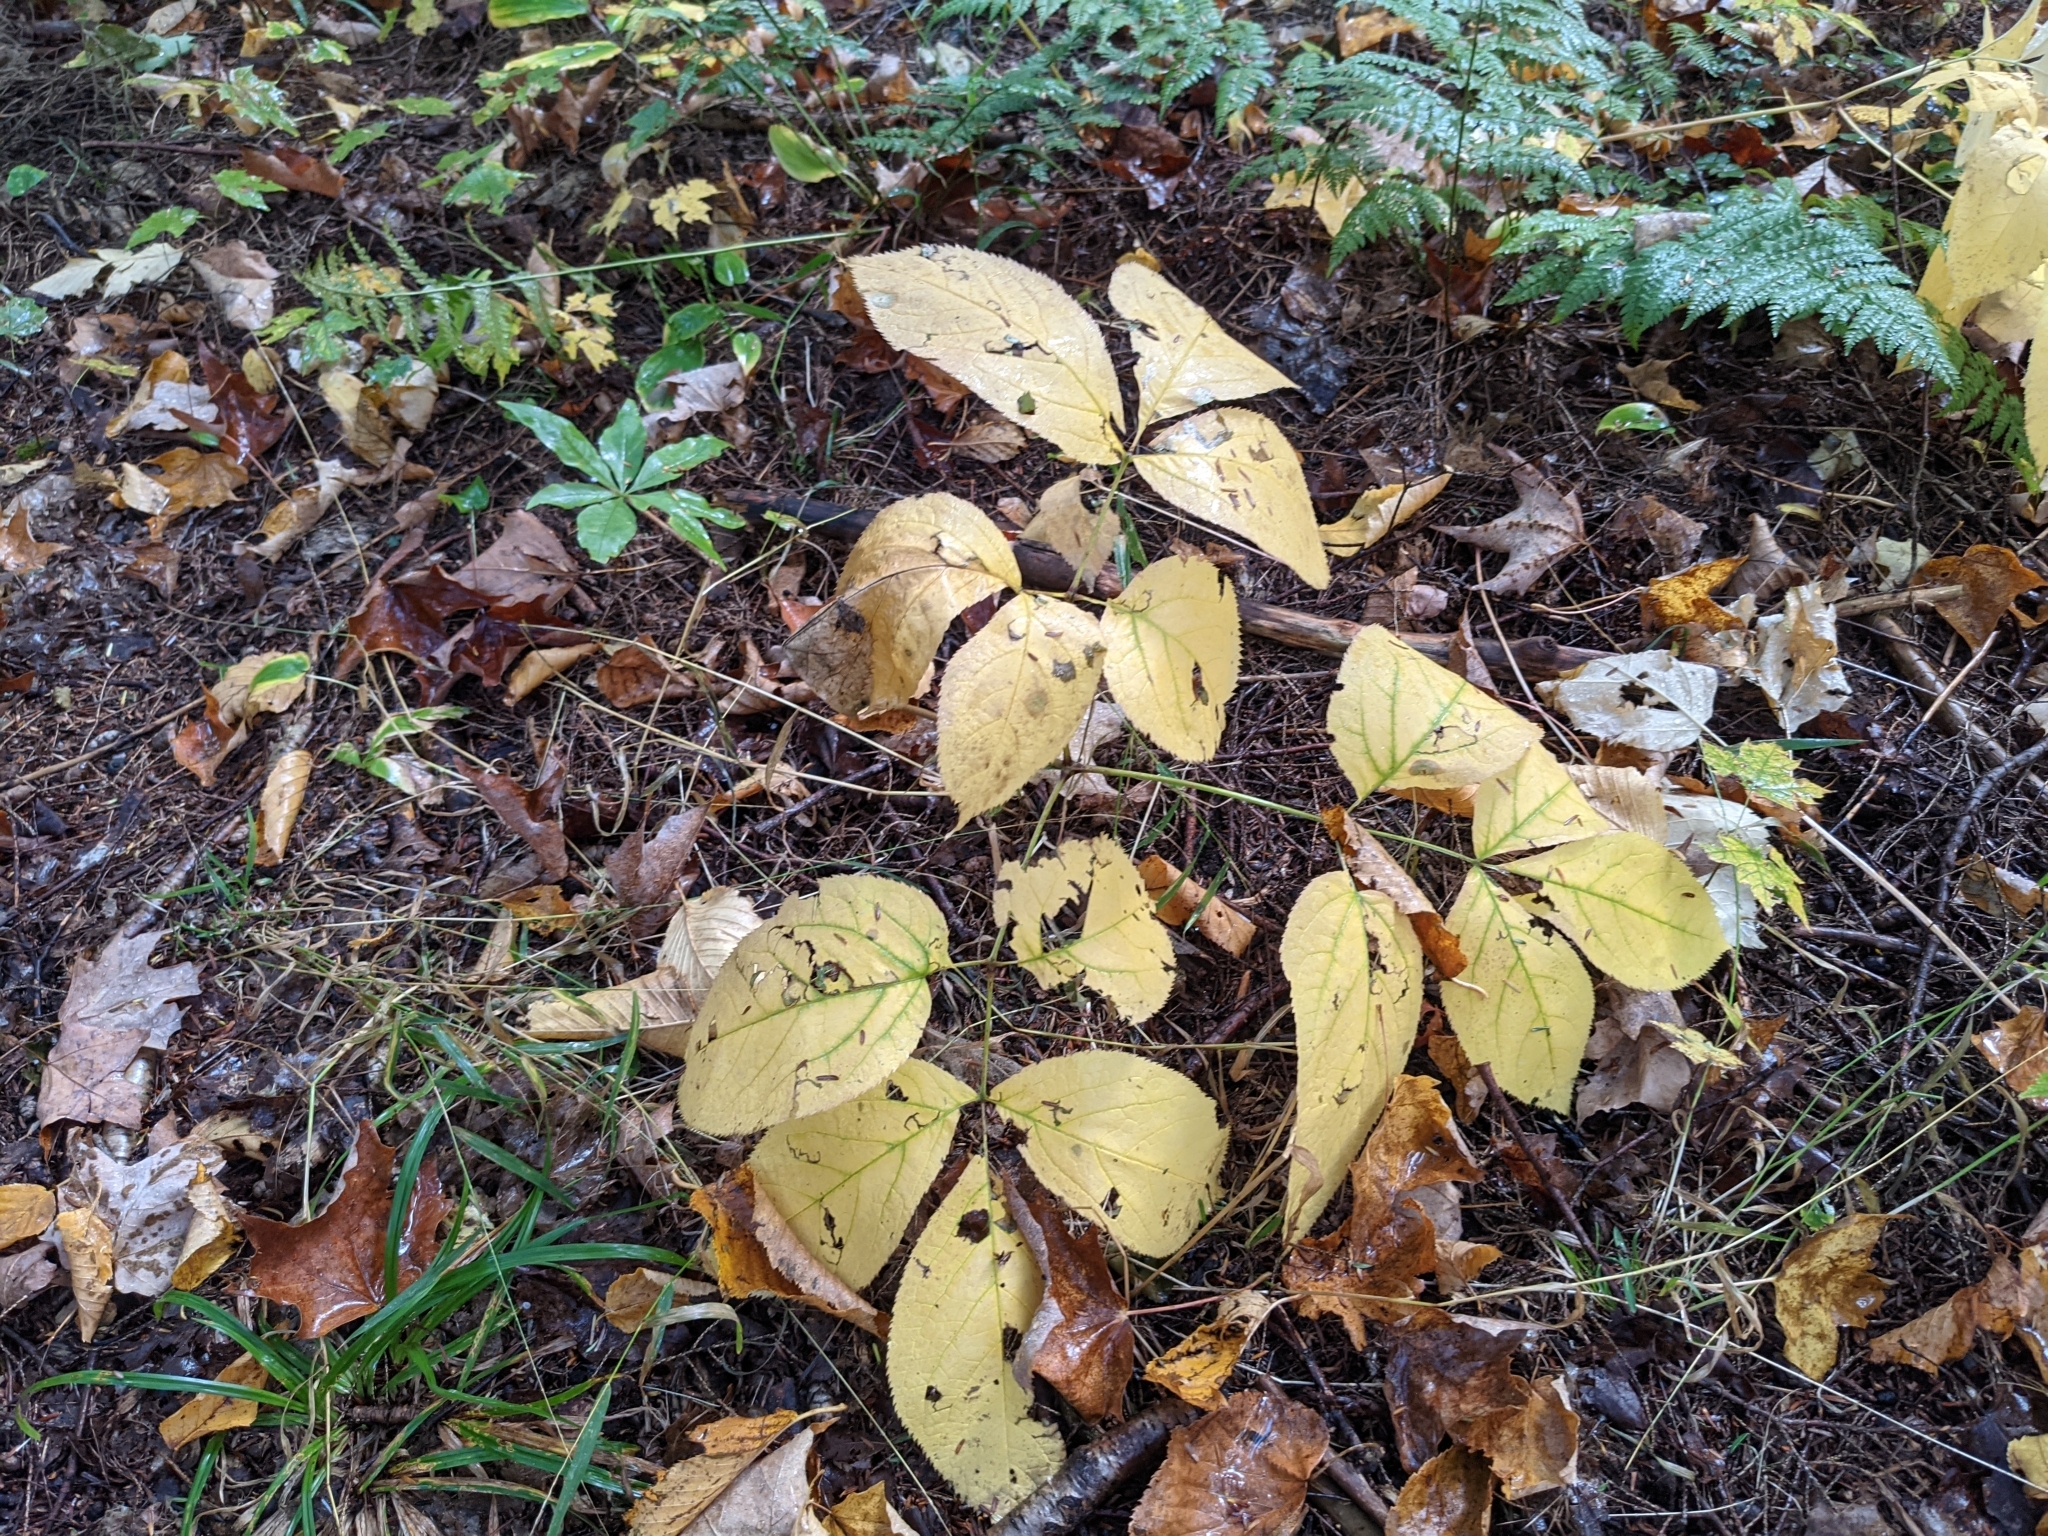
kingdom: Plantae
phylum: Tracheophyta
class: Magnoliopsida
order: Apiales
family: Araliaceae
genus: Aralia
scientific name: Aralia nudicaulis
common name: Wild sarsaparilla
